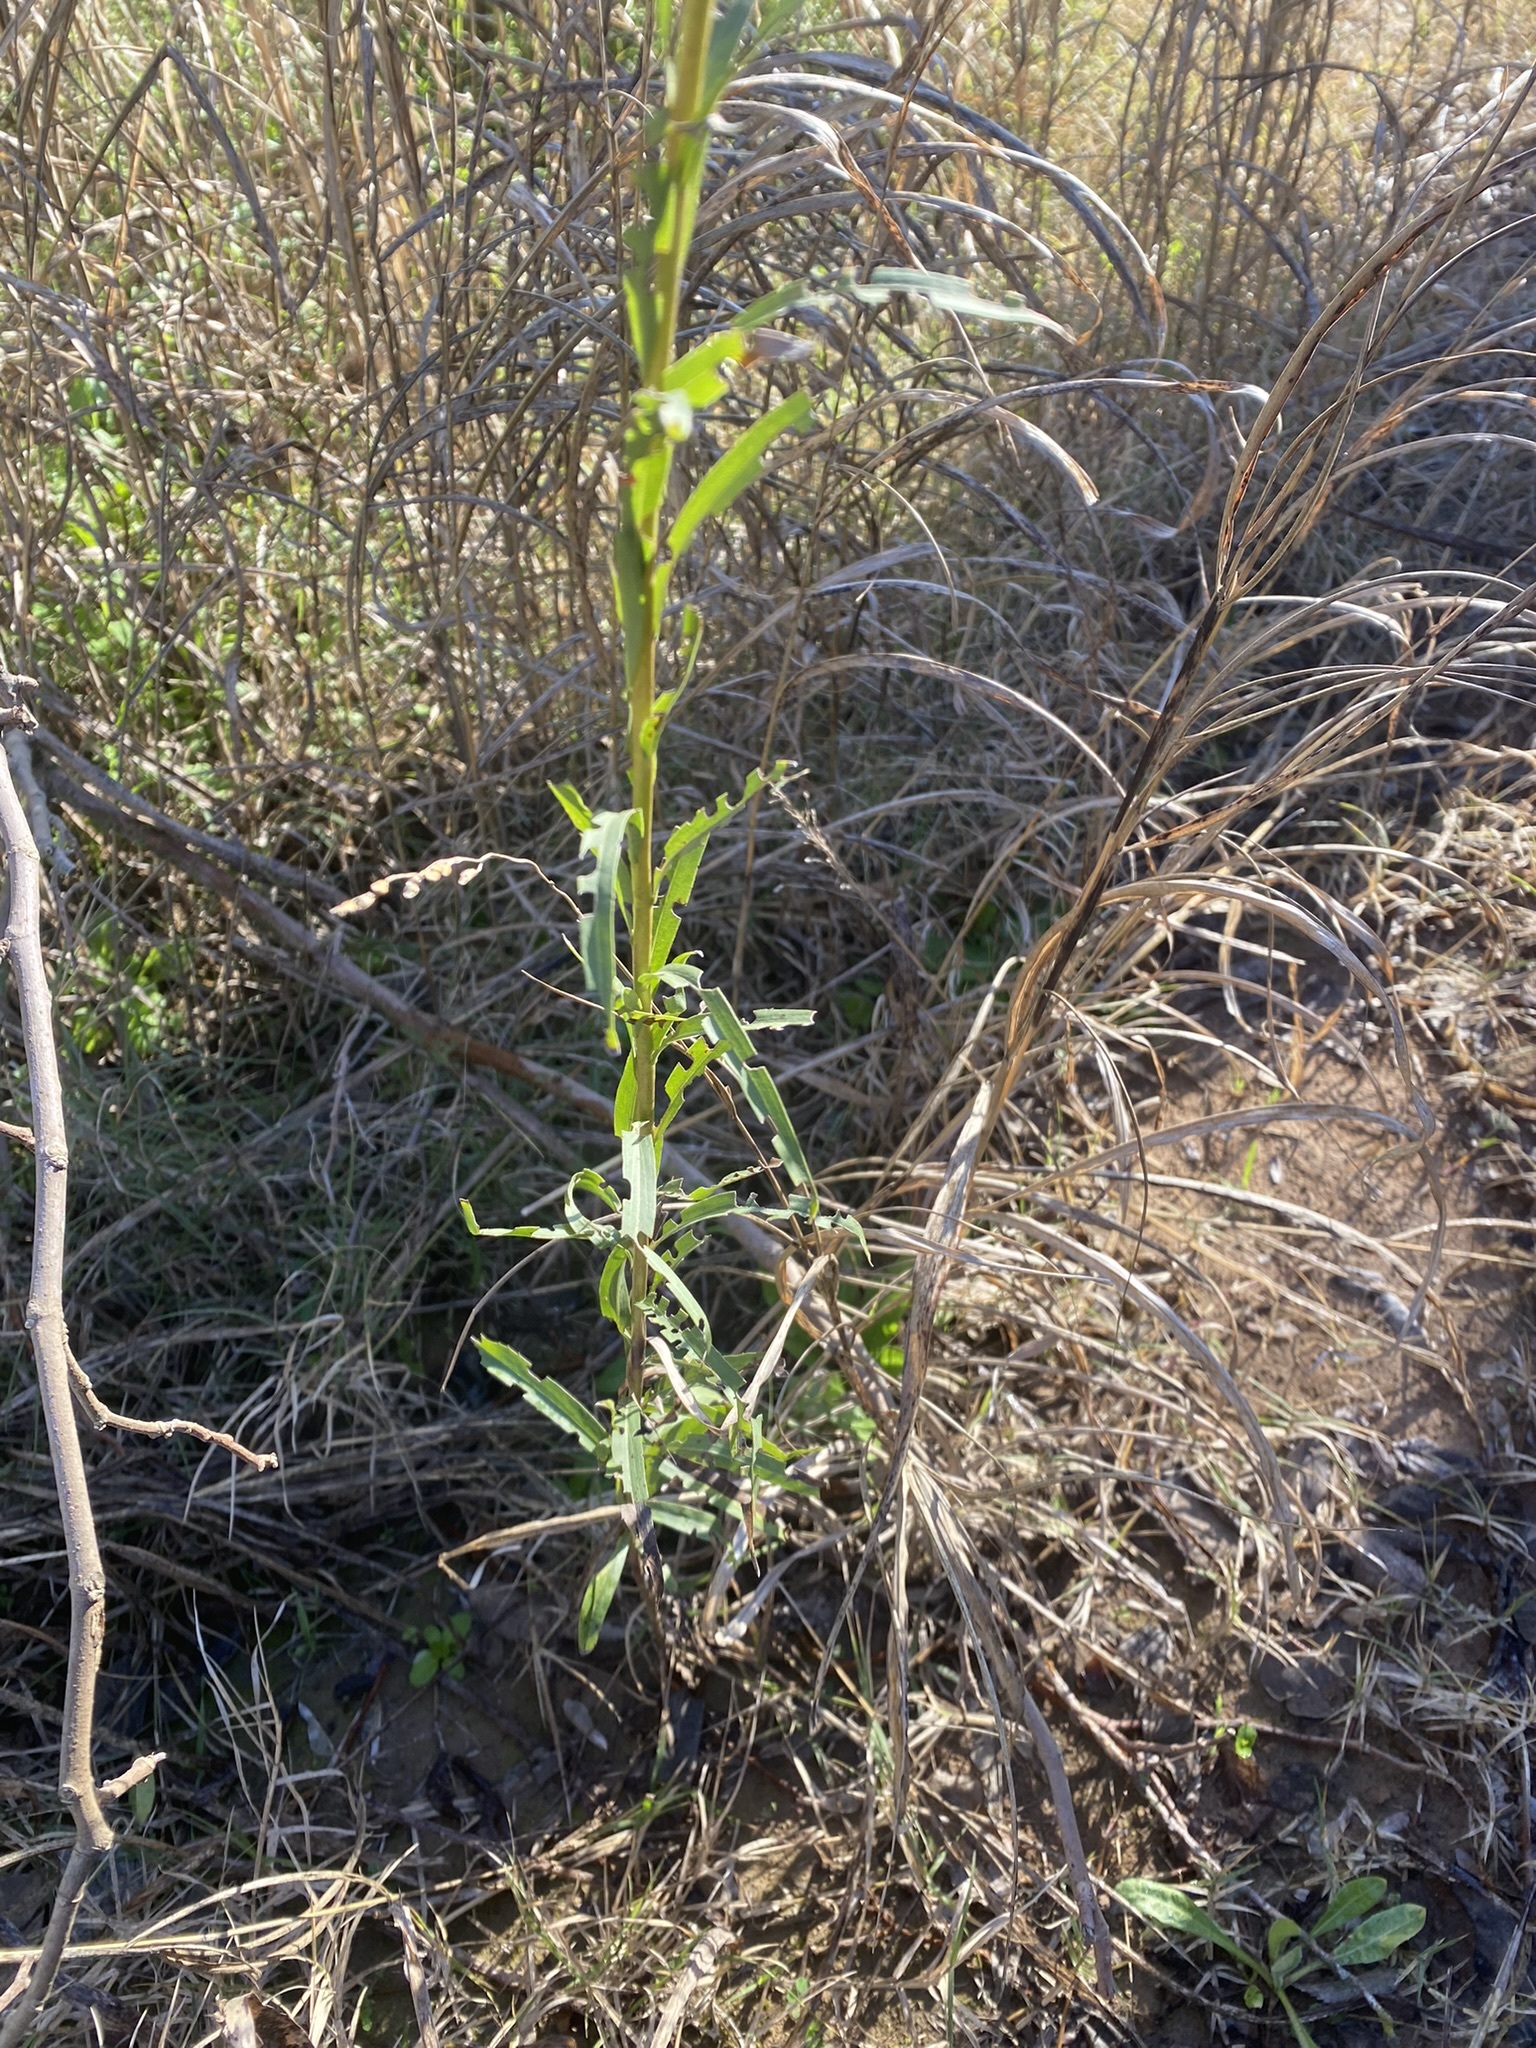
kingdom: Plantae
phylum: Tracheophyta
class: Magnoliopsida
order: Asterales
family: Asteraceae
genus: Solidago
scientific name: Solidago chilensis
